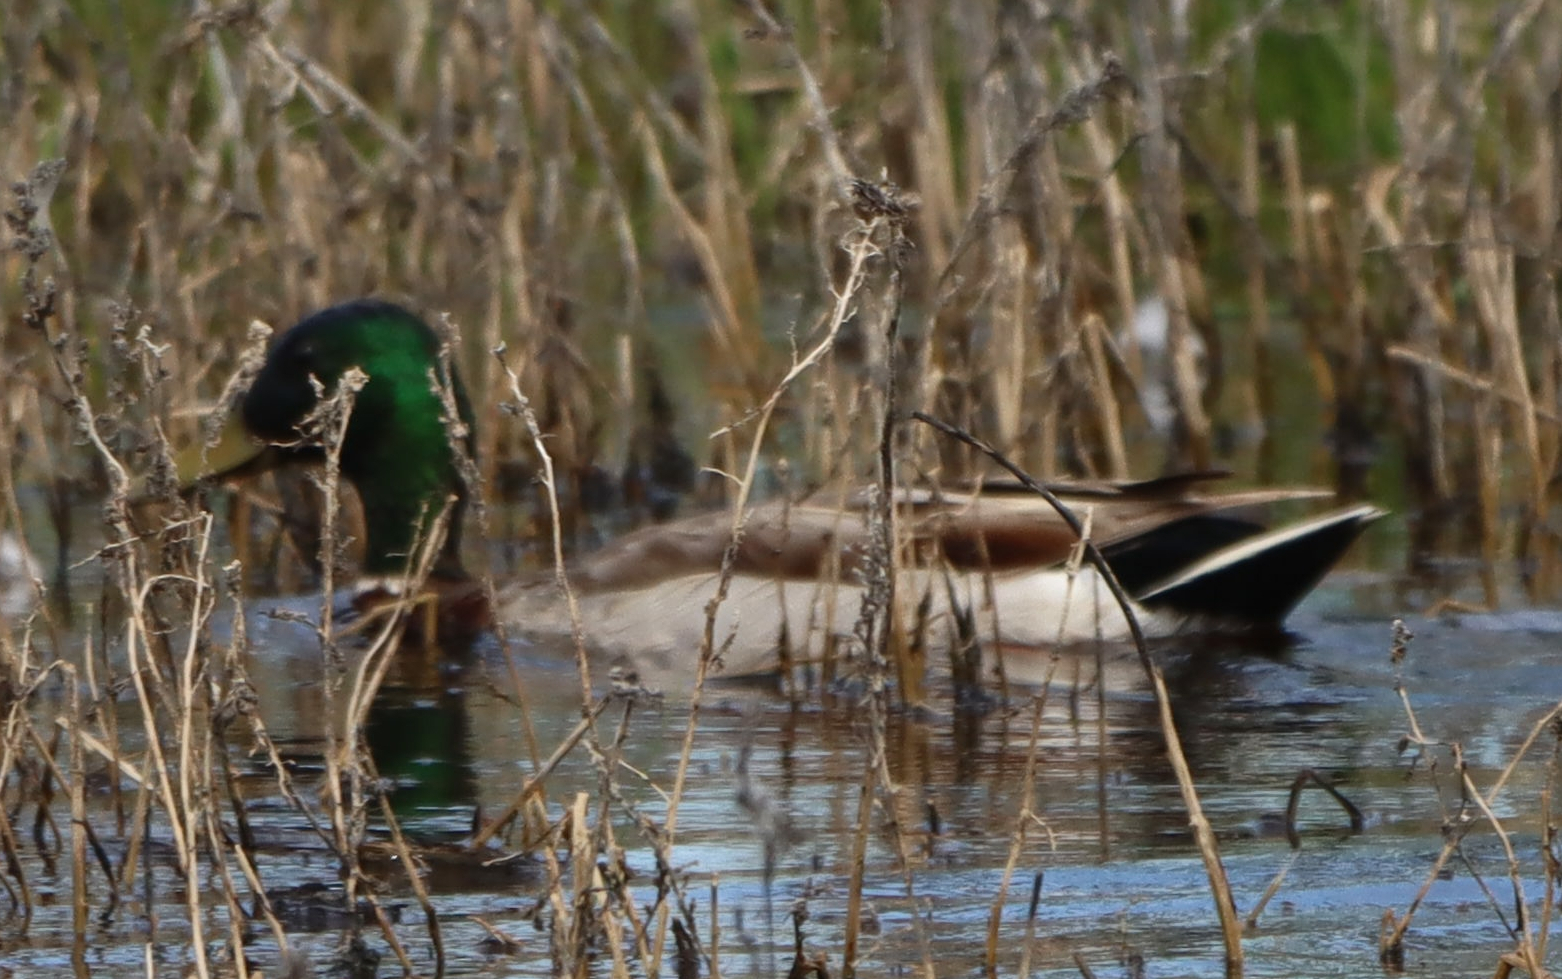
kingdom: Animalia
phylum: Chordata
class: Aves
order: Anseriformes
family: Anatidae
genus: Anas
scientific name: Anas platyrhynchos
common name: Mallard
